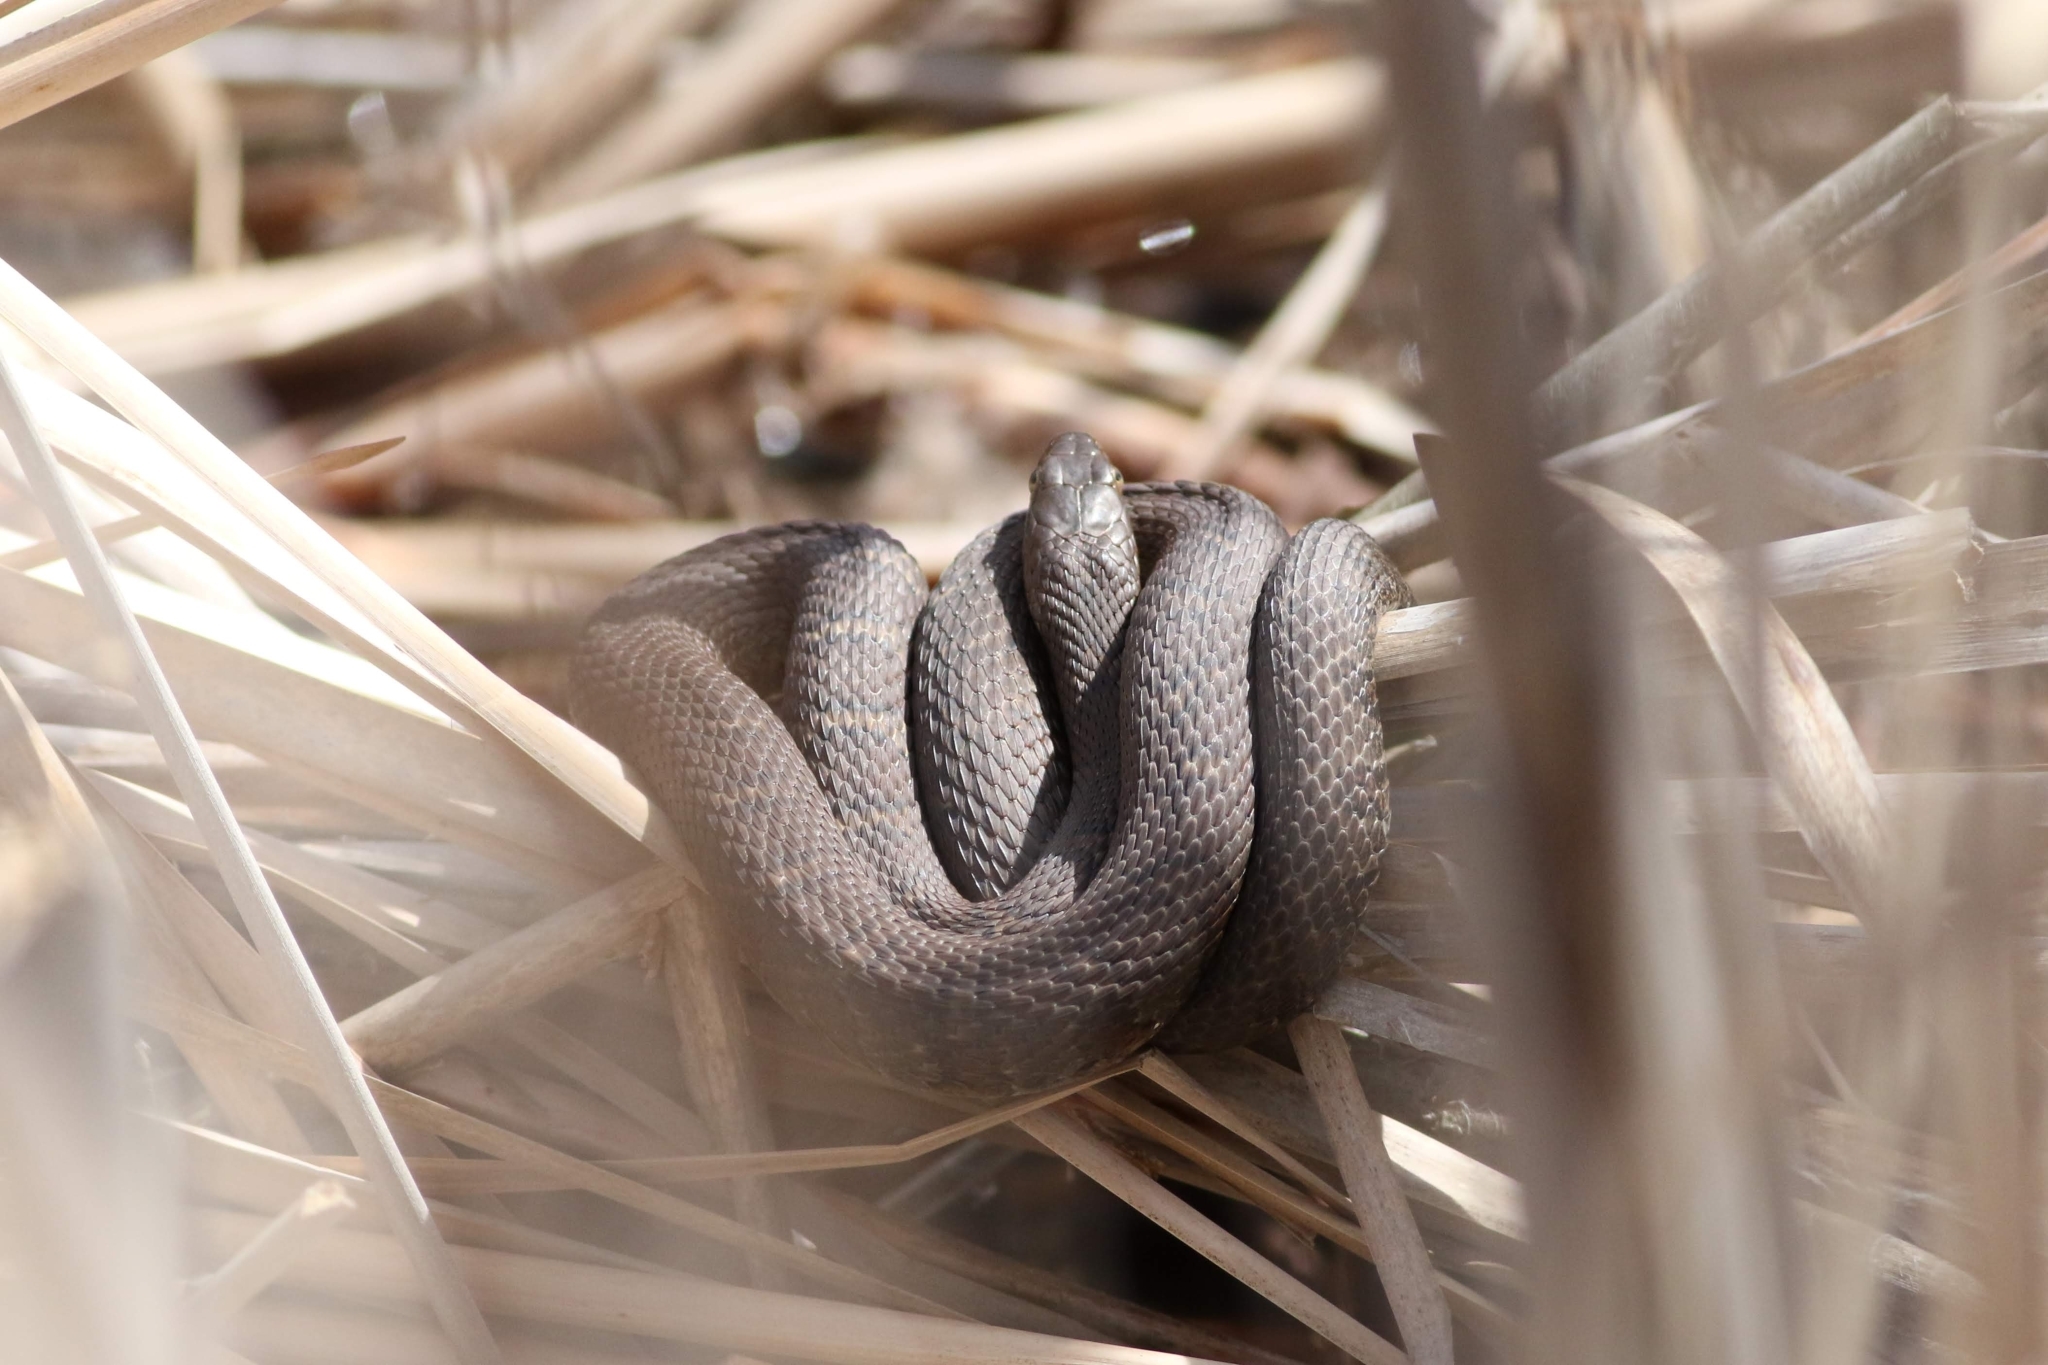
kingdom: Animalia
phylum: Chordata
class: Squamata
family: Colubridae
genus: Nerodia
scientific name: Nerodia sipedon
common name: Northern water snake
